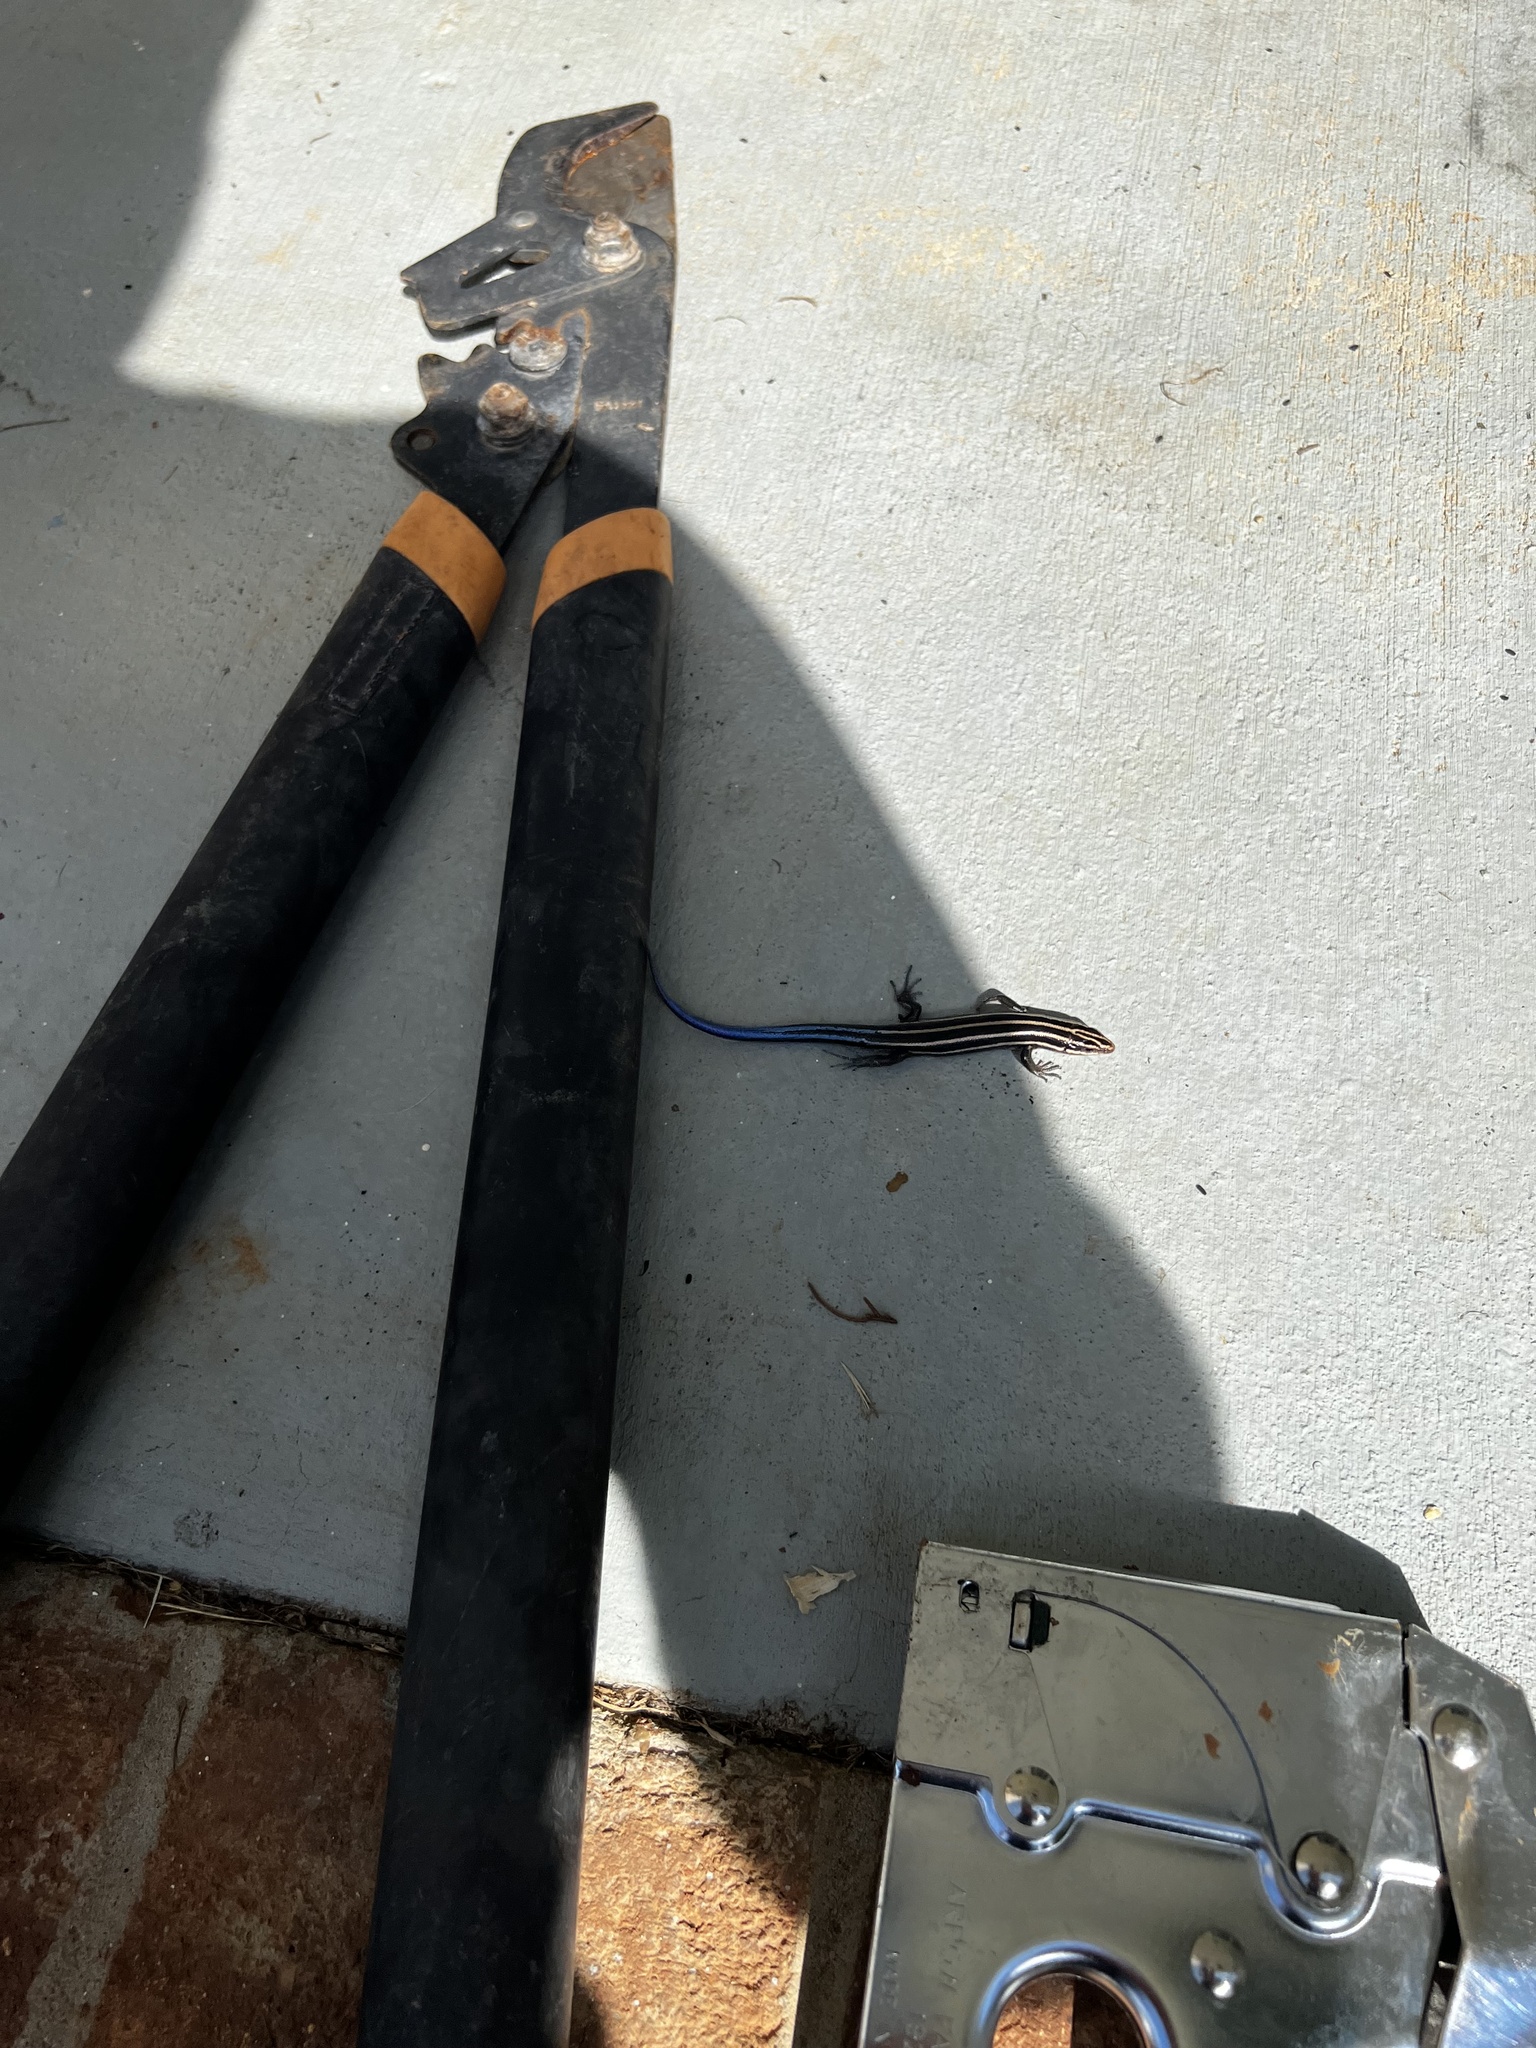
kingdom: Animalia
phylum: Chordata
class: Squamata
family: Scincidae
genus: Plestiodon
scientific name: Plestiodon fasciatus
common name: Five-lined skink
